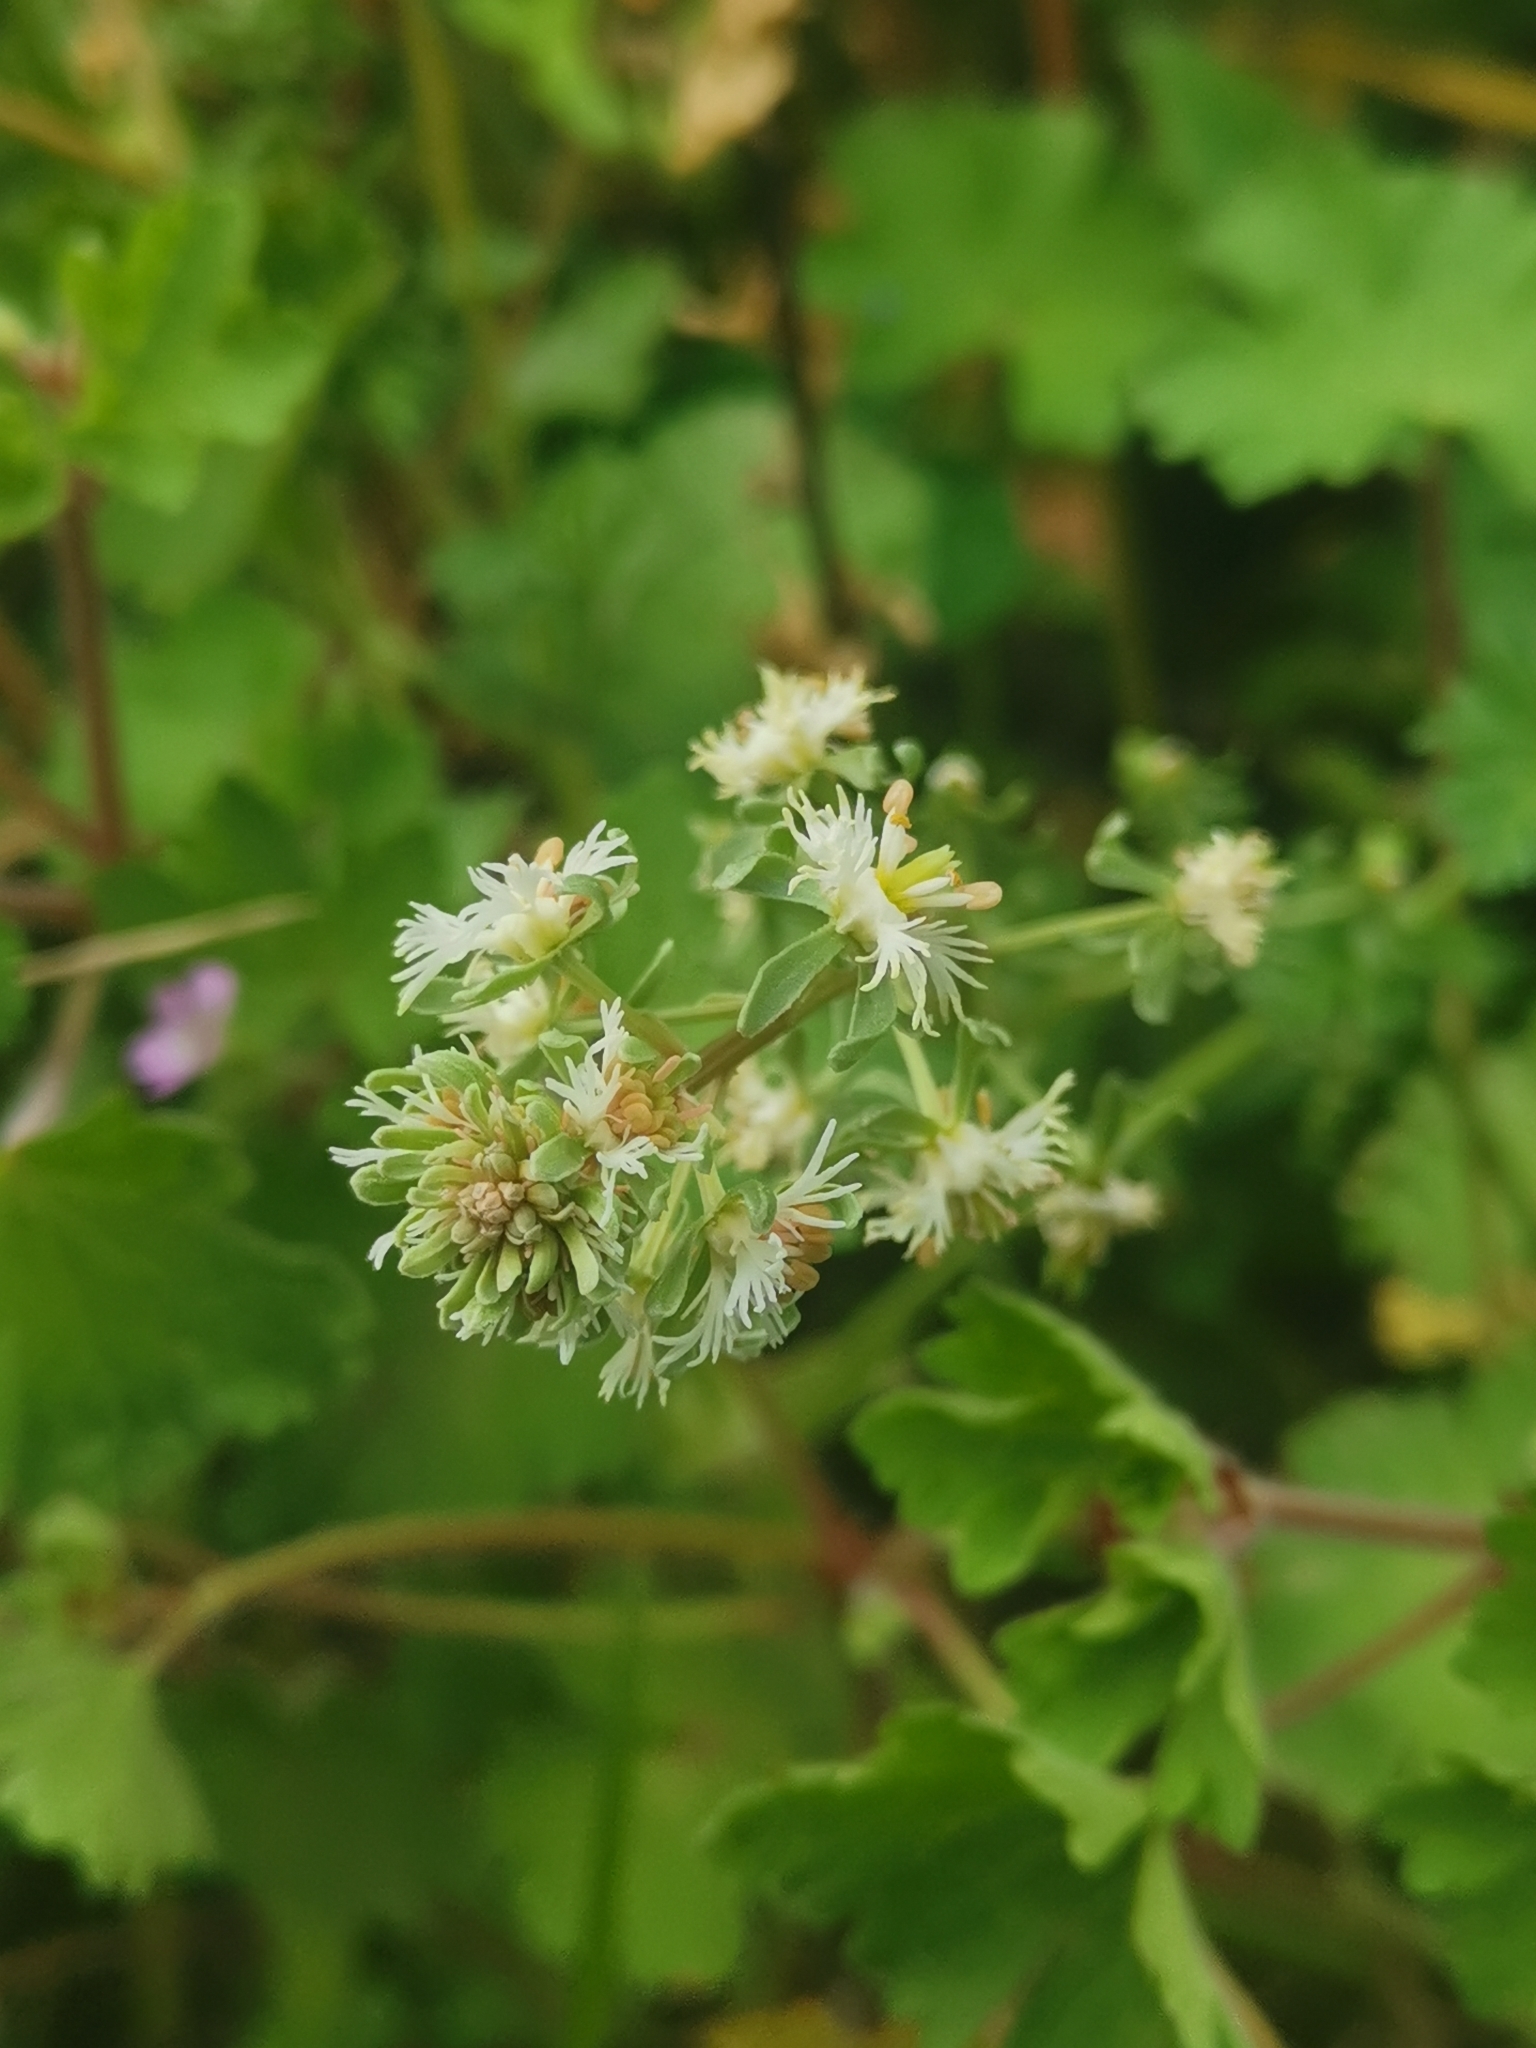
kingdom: Plantae
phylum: Tracheophyta
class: Magnoliopsida
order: Brassicales
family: Resedaceae
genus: Reseda
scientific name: Reseda phyteuma
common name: Corn mignonette
